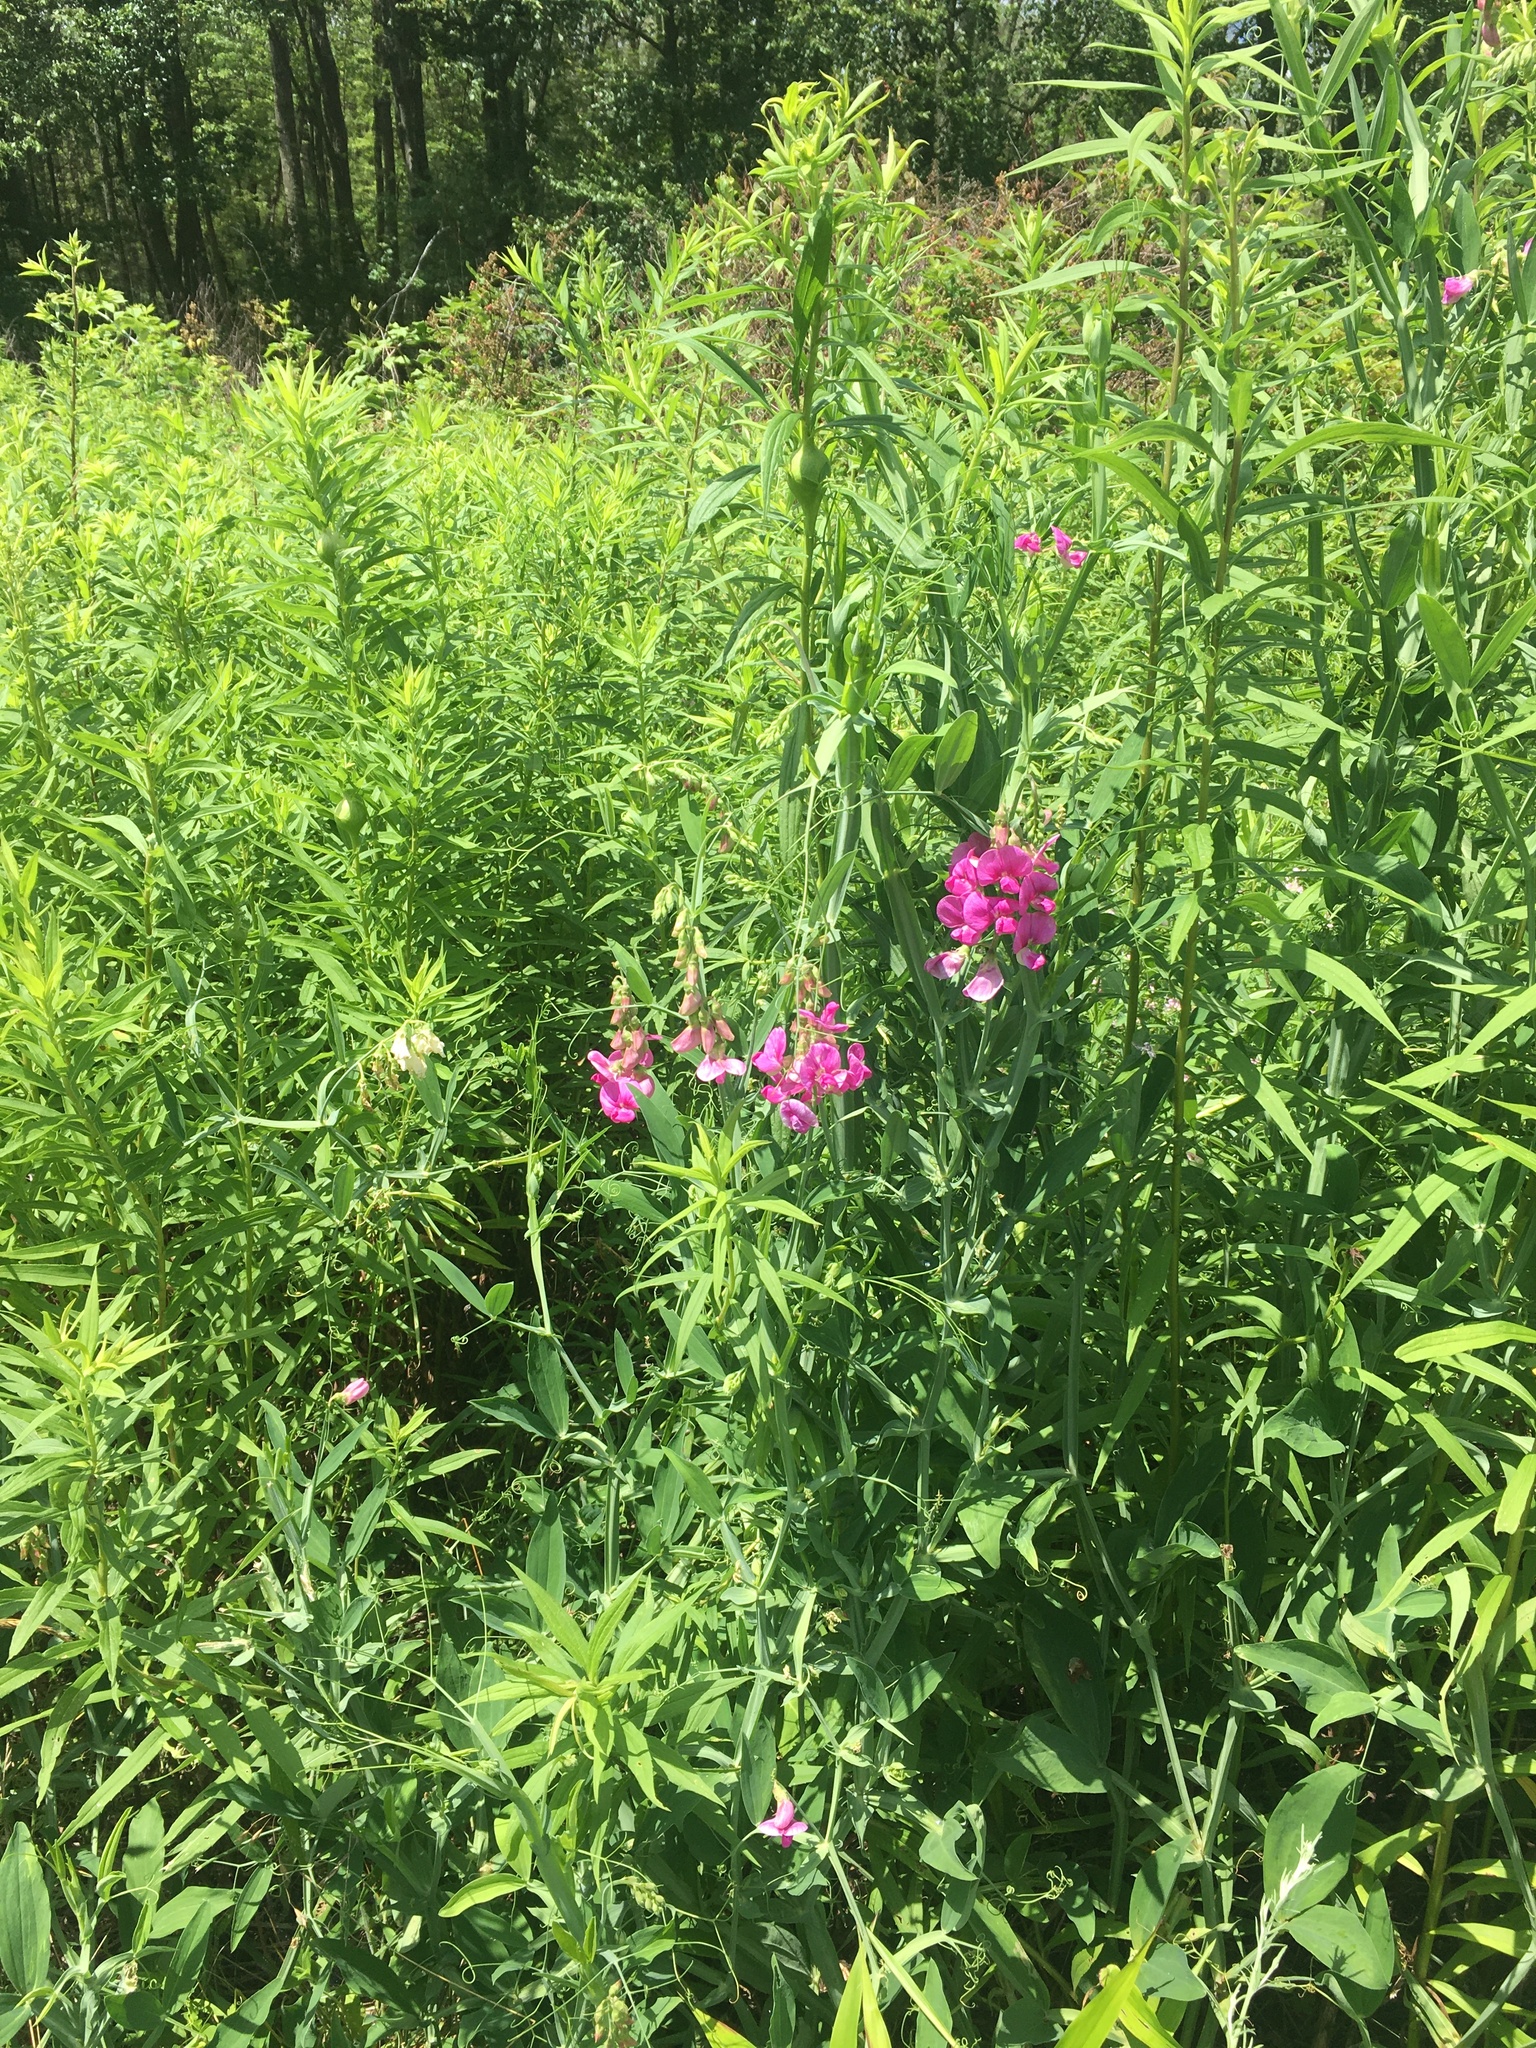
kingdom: Plantae
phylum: Tracheophyta
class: Magnoliopsida
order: Fabales
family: Fabaceae
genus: Lathyrus
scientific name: Lathyrus latifolius
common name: Perennial pea
